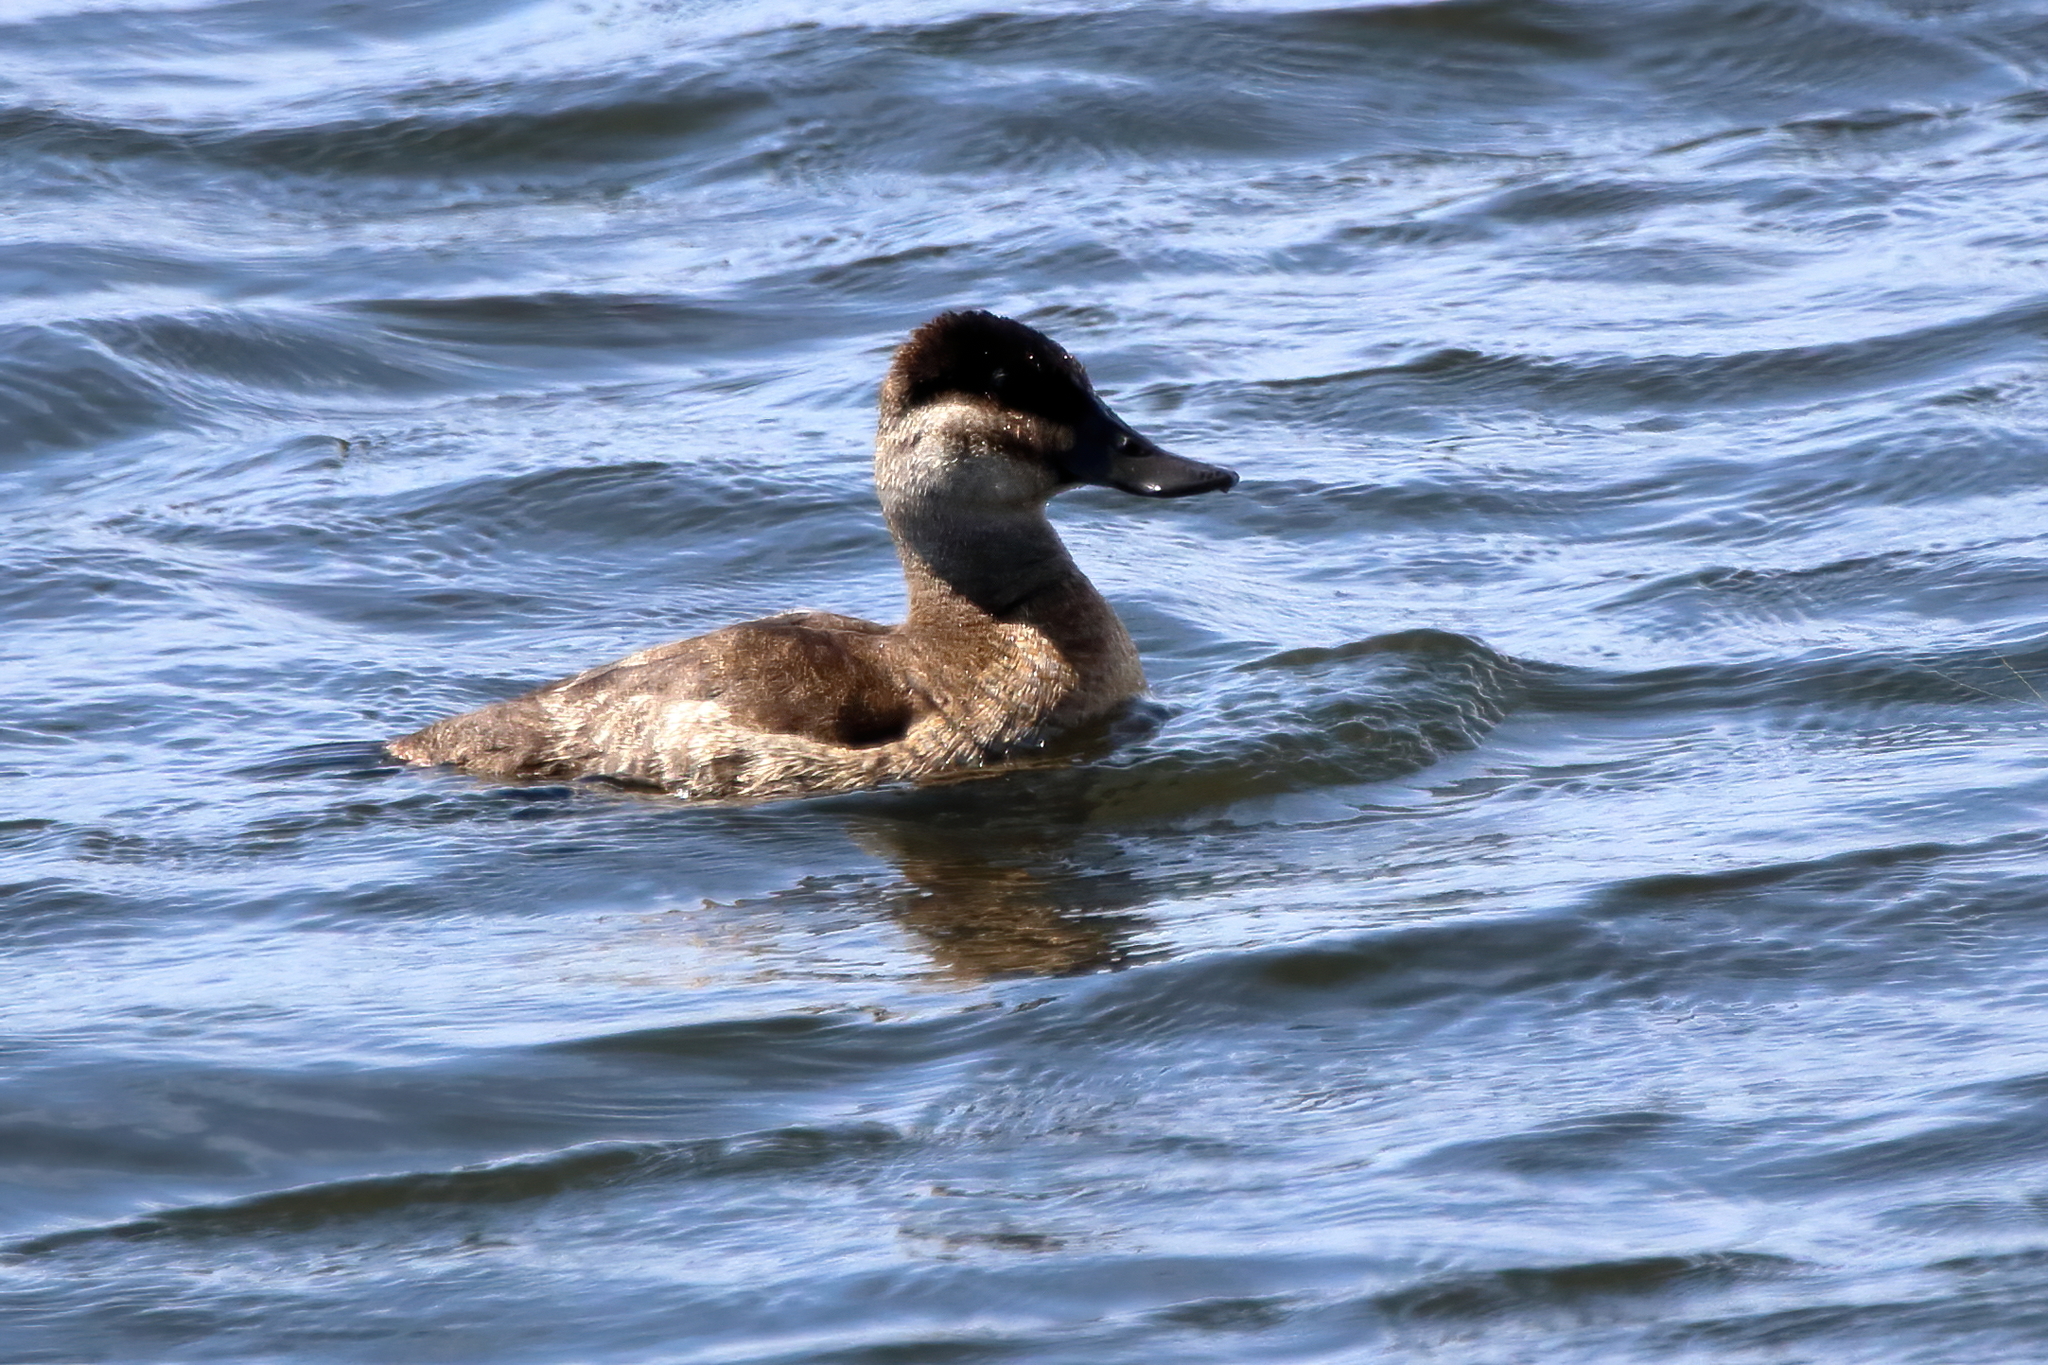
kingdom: Animalia
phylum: Chordata
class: Aves
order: Anseriformes
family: Anatidae
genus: Oxyura
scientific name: Oxyura jamaicensis
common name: Ruddy duck
